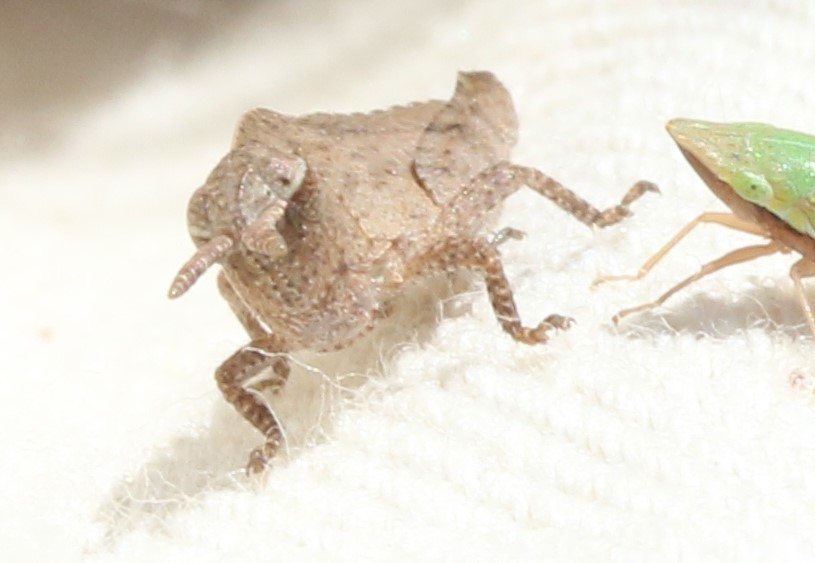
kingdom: Animalia
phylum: Arthropoda
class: Insecta
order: Orthoptera
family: Acrididae
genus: Chortophaga
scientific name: Chortophaga viridifasciata
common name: Green-striped grasshopper
